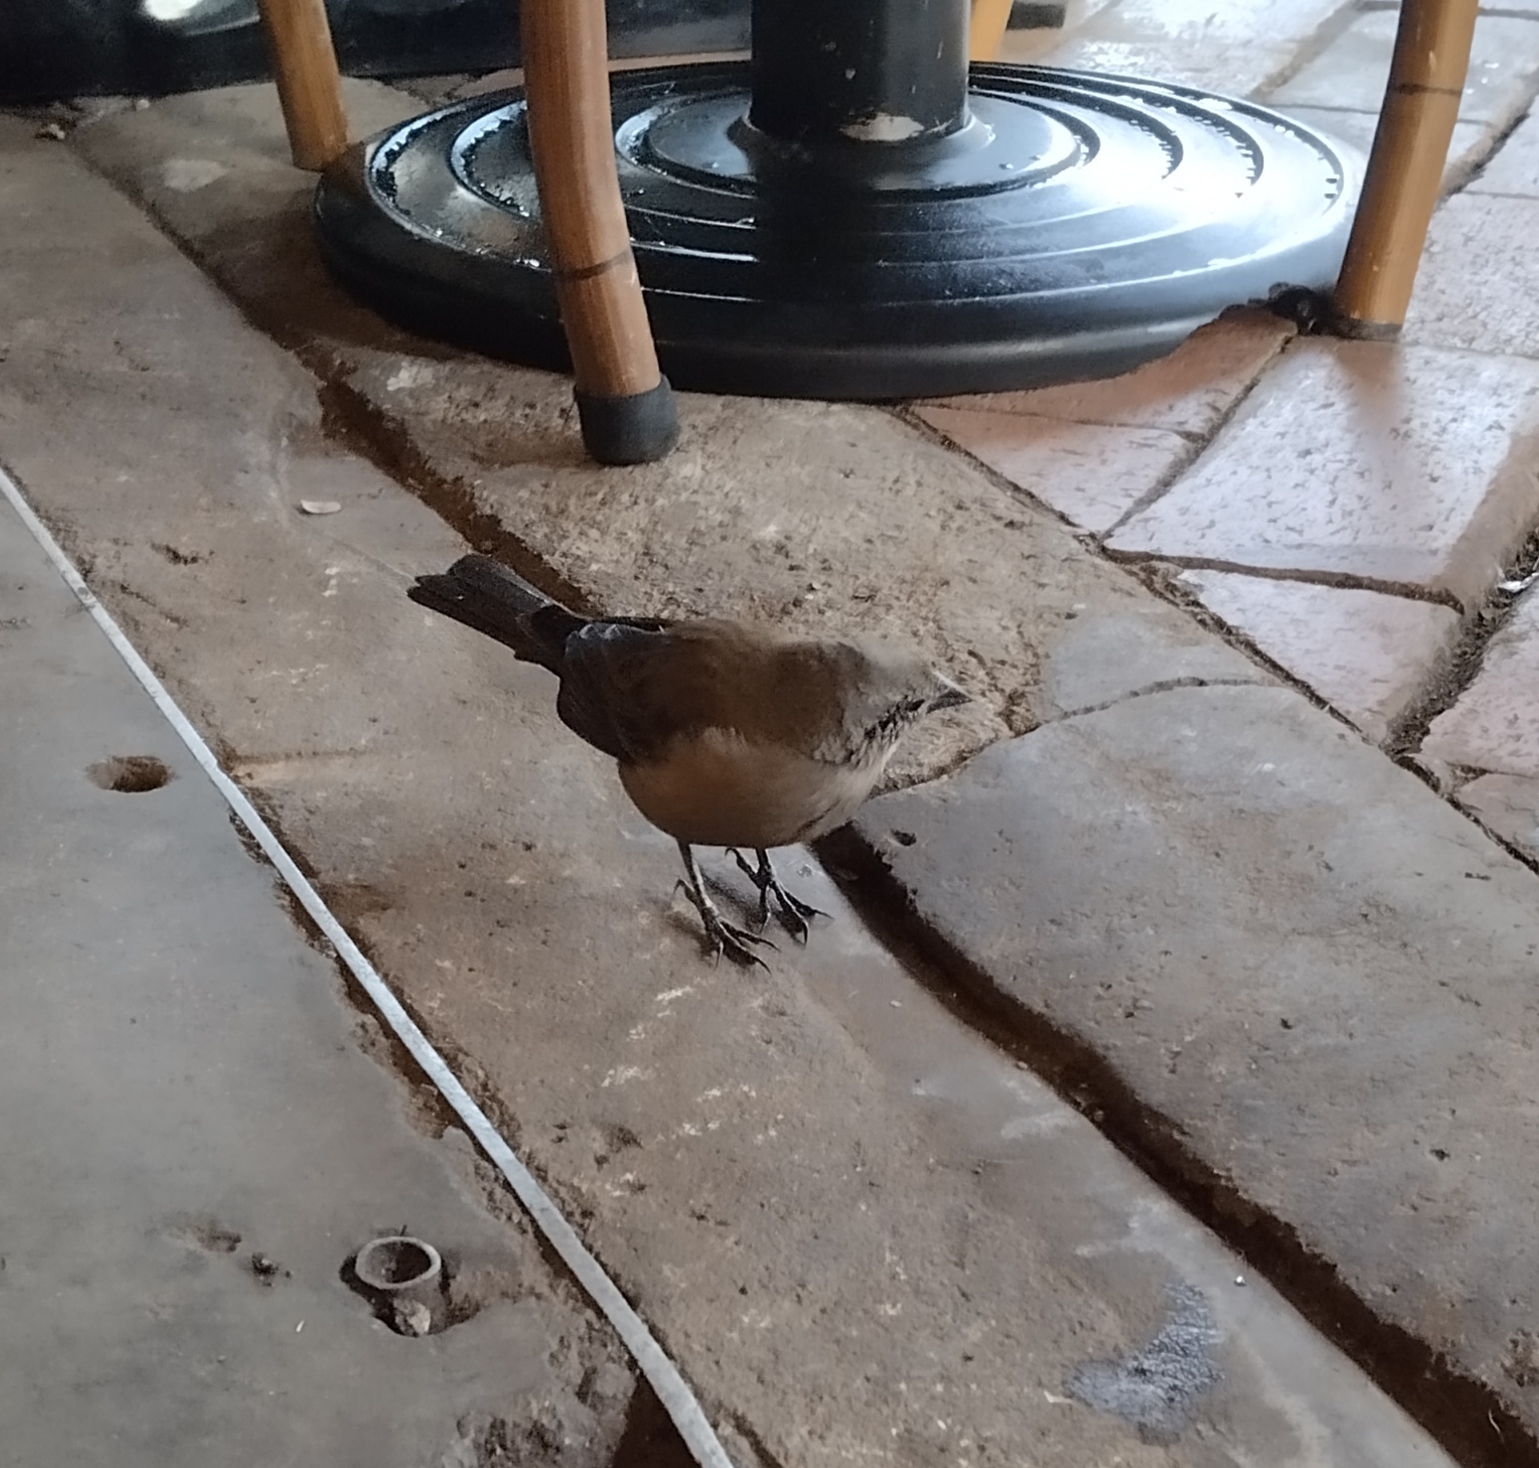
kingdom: Animalia
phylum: Chordata
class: Aves
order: Passeriformes
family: Icteridae
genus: Molothrus
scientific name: Molothrus bonariensis
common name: Shiny cowbird
